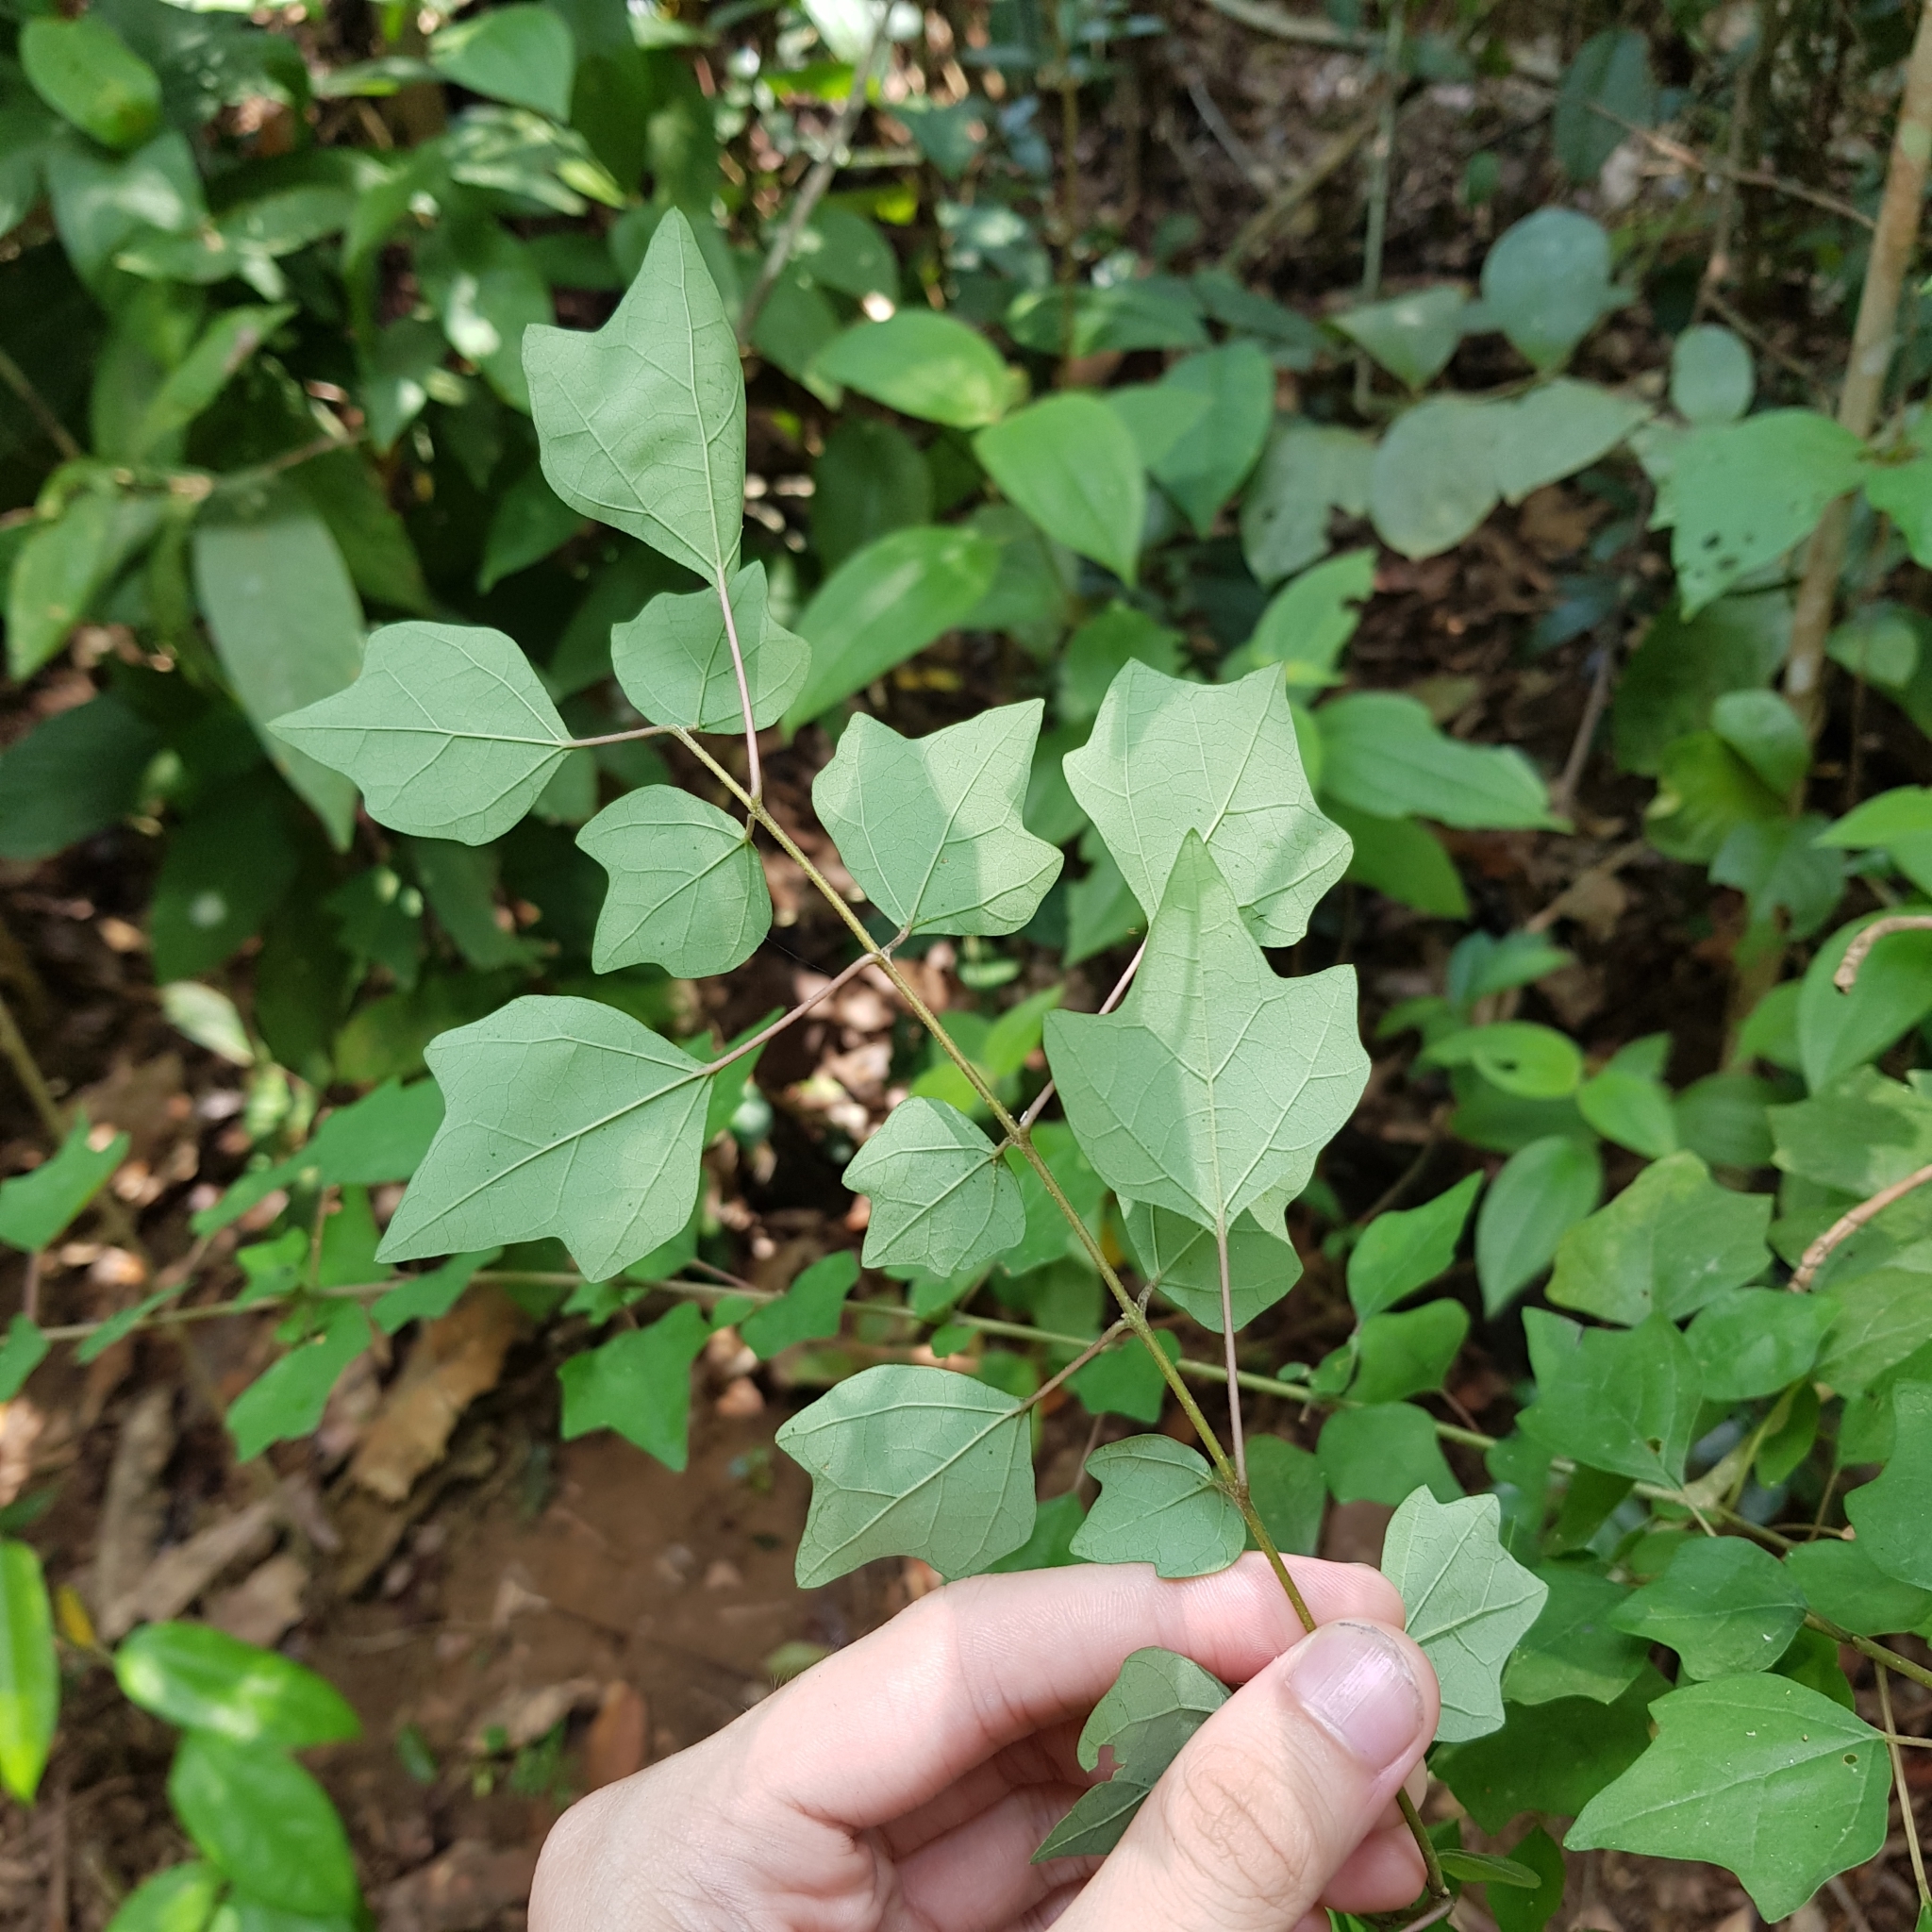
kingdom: Plantae
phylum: Tracheophyta
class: Magnoliopsida
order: Lamiales
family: Lamiaceae
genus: Gmelina
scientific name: Gmelina philippensis
